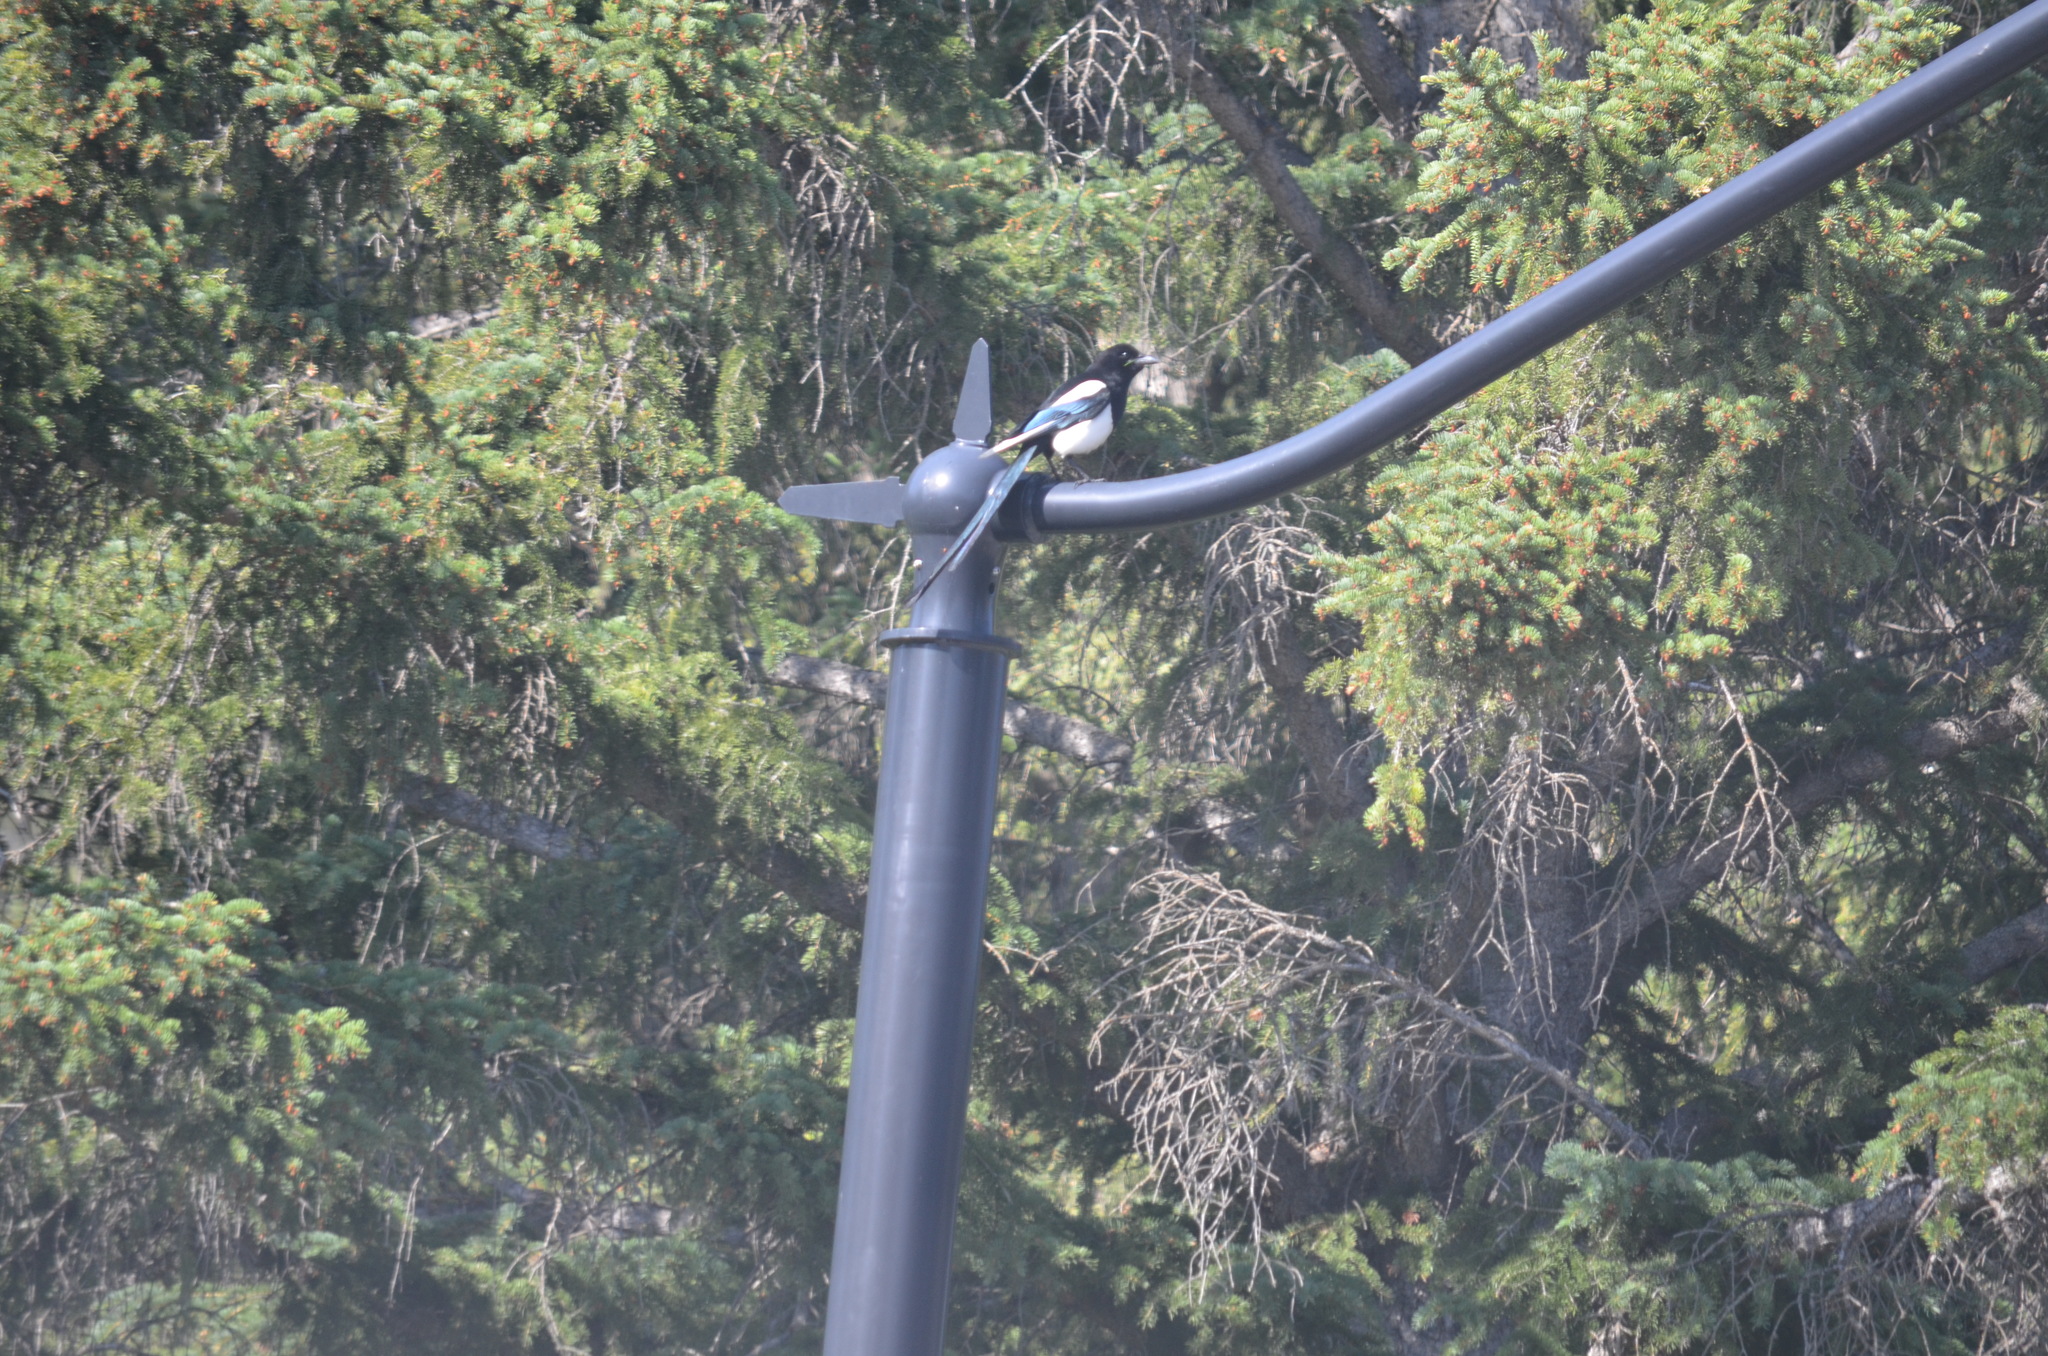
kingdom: Animalia
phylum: Chordata
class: Aves
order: Passeriformes
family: Corvidae
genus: Pica
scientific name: Pica hudsonia
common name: Black-billed magpie
